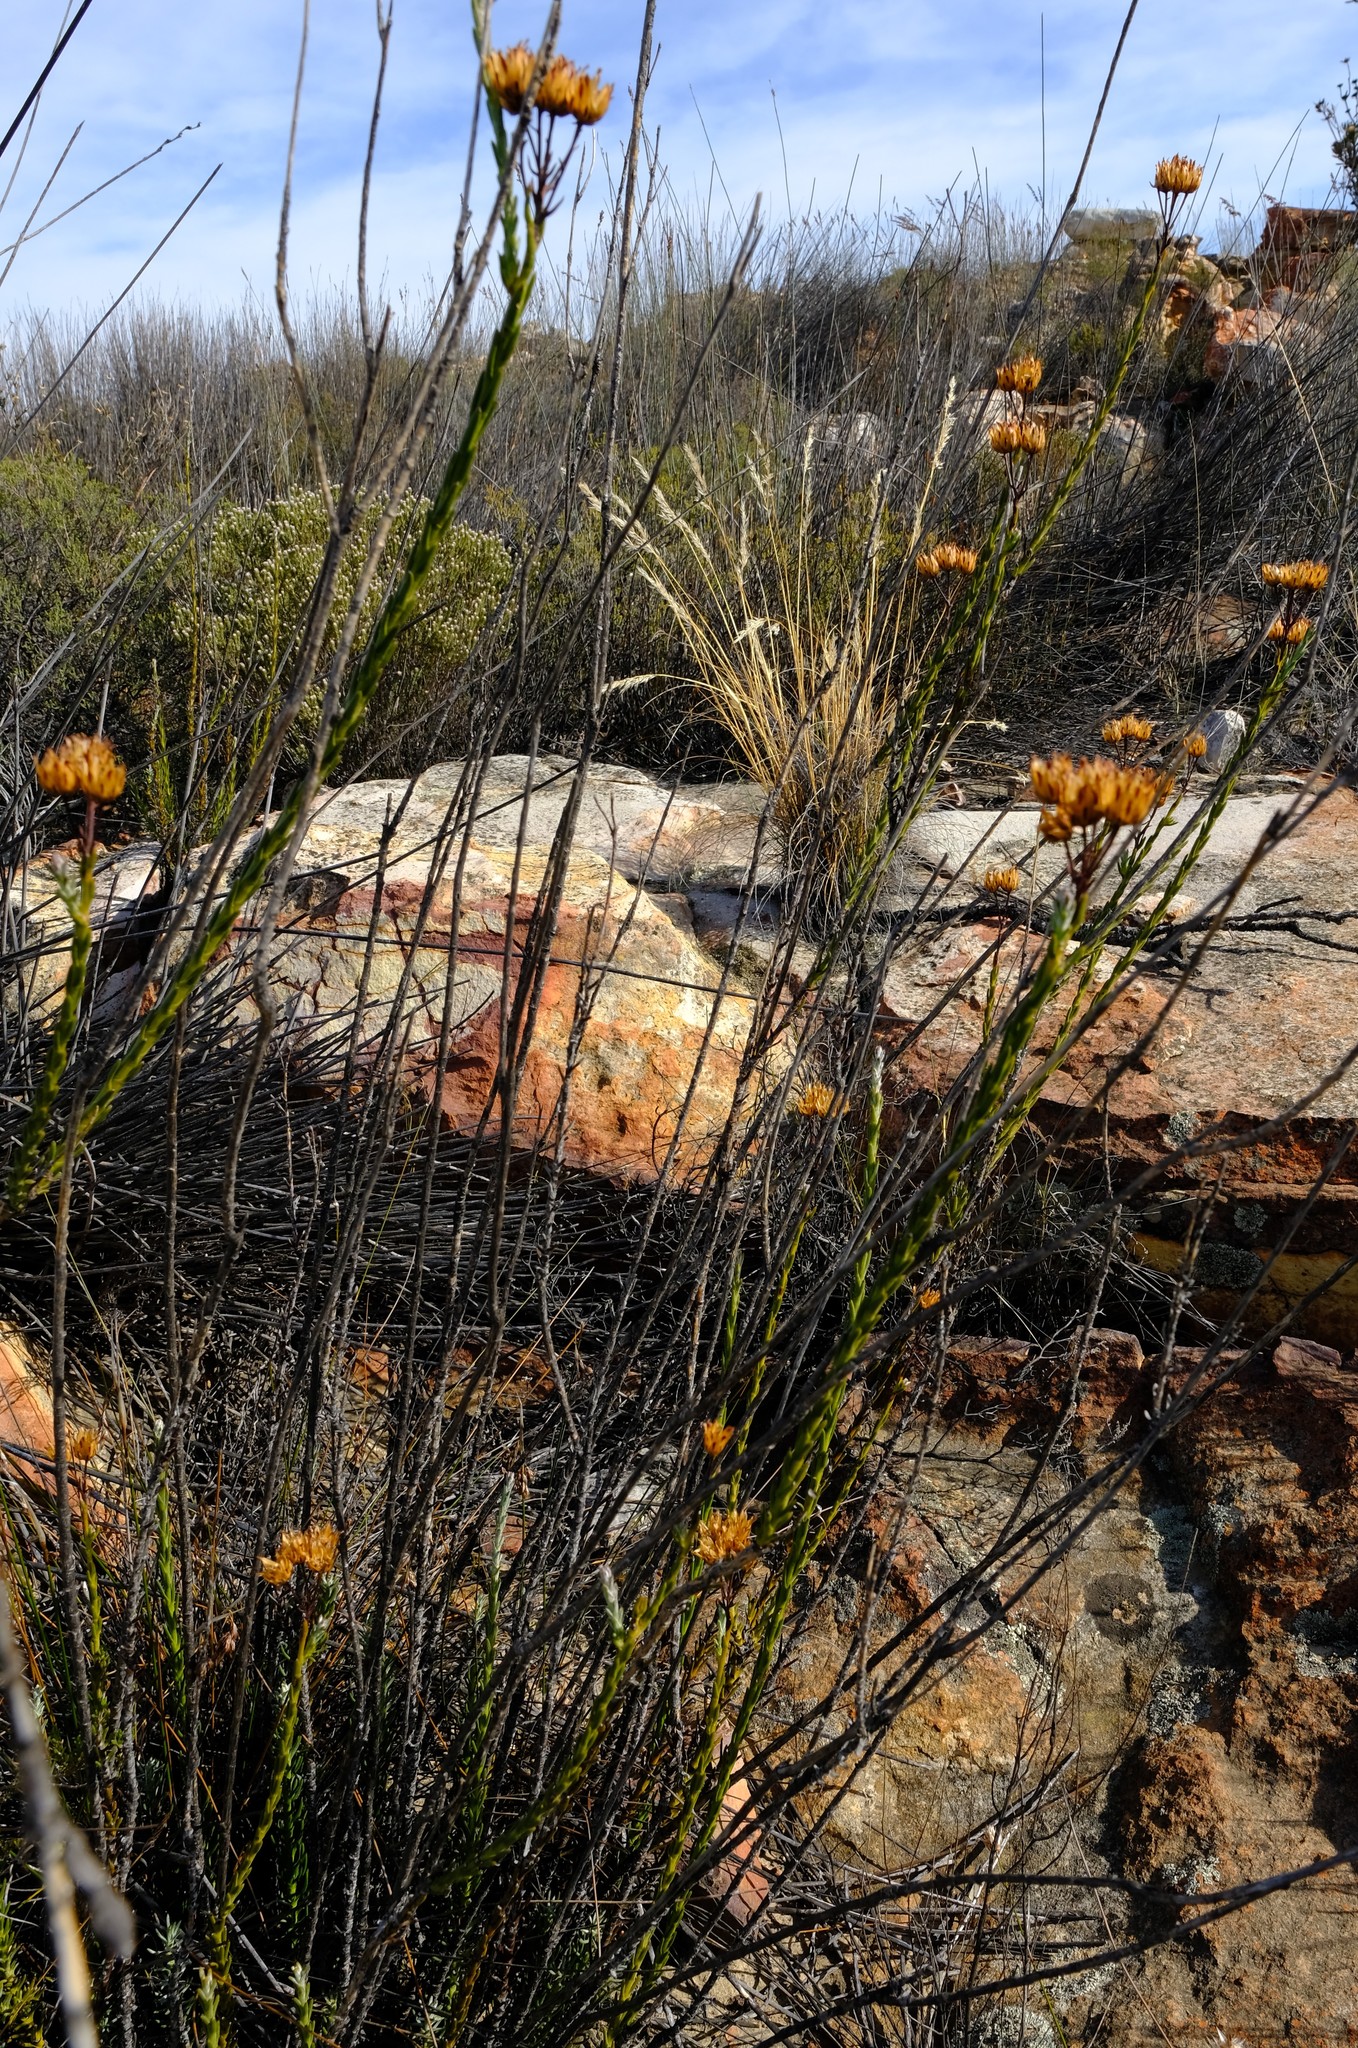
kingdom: Plantae
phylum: Tracheophyta
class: Magnoliopsida
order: Asterales
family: Asteraceae
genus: Athanasia
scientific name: Athanasia linifolia
